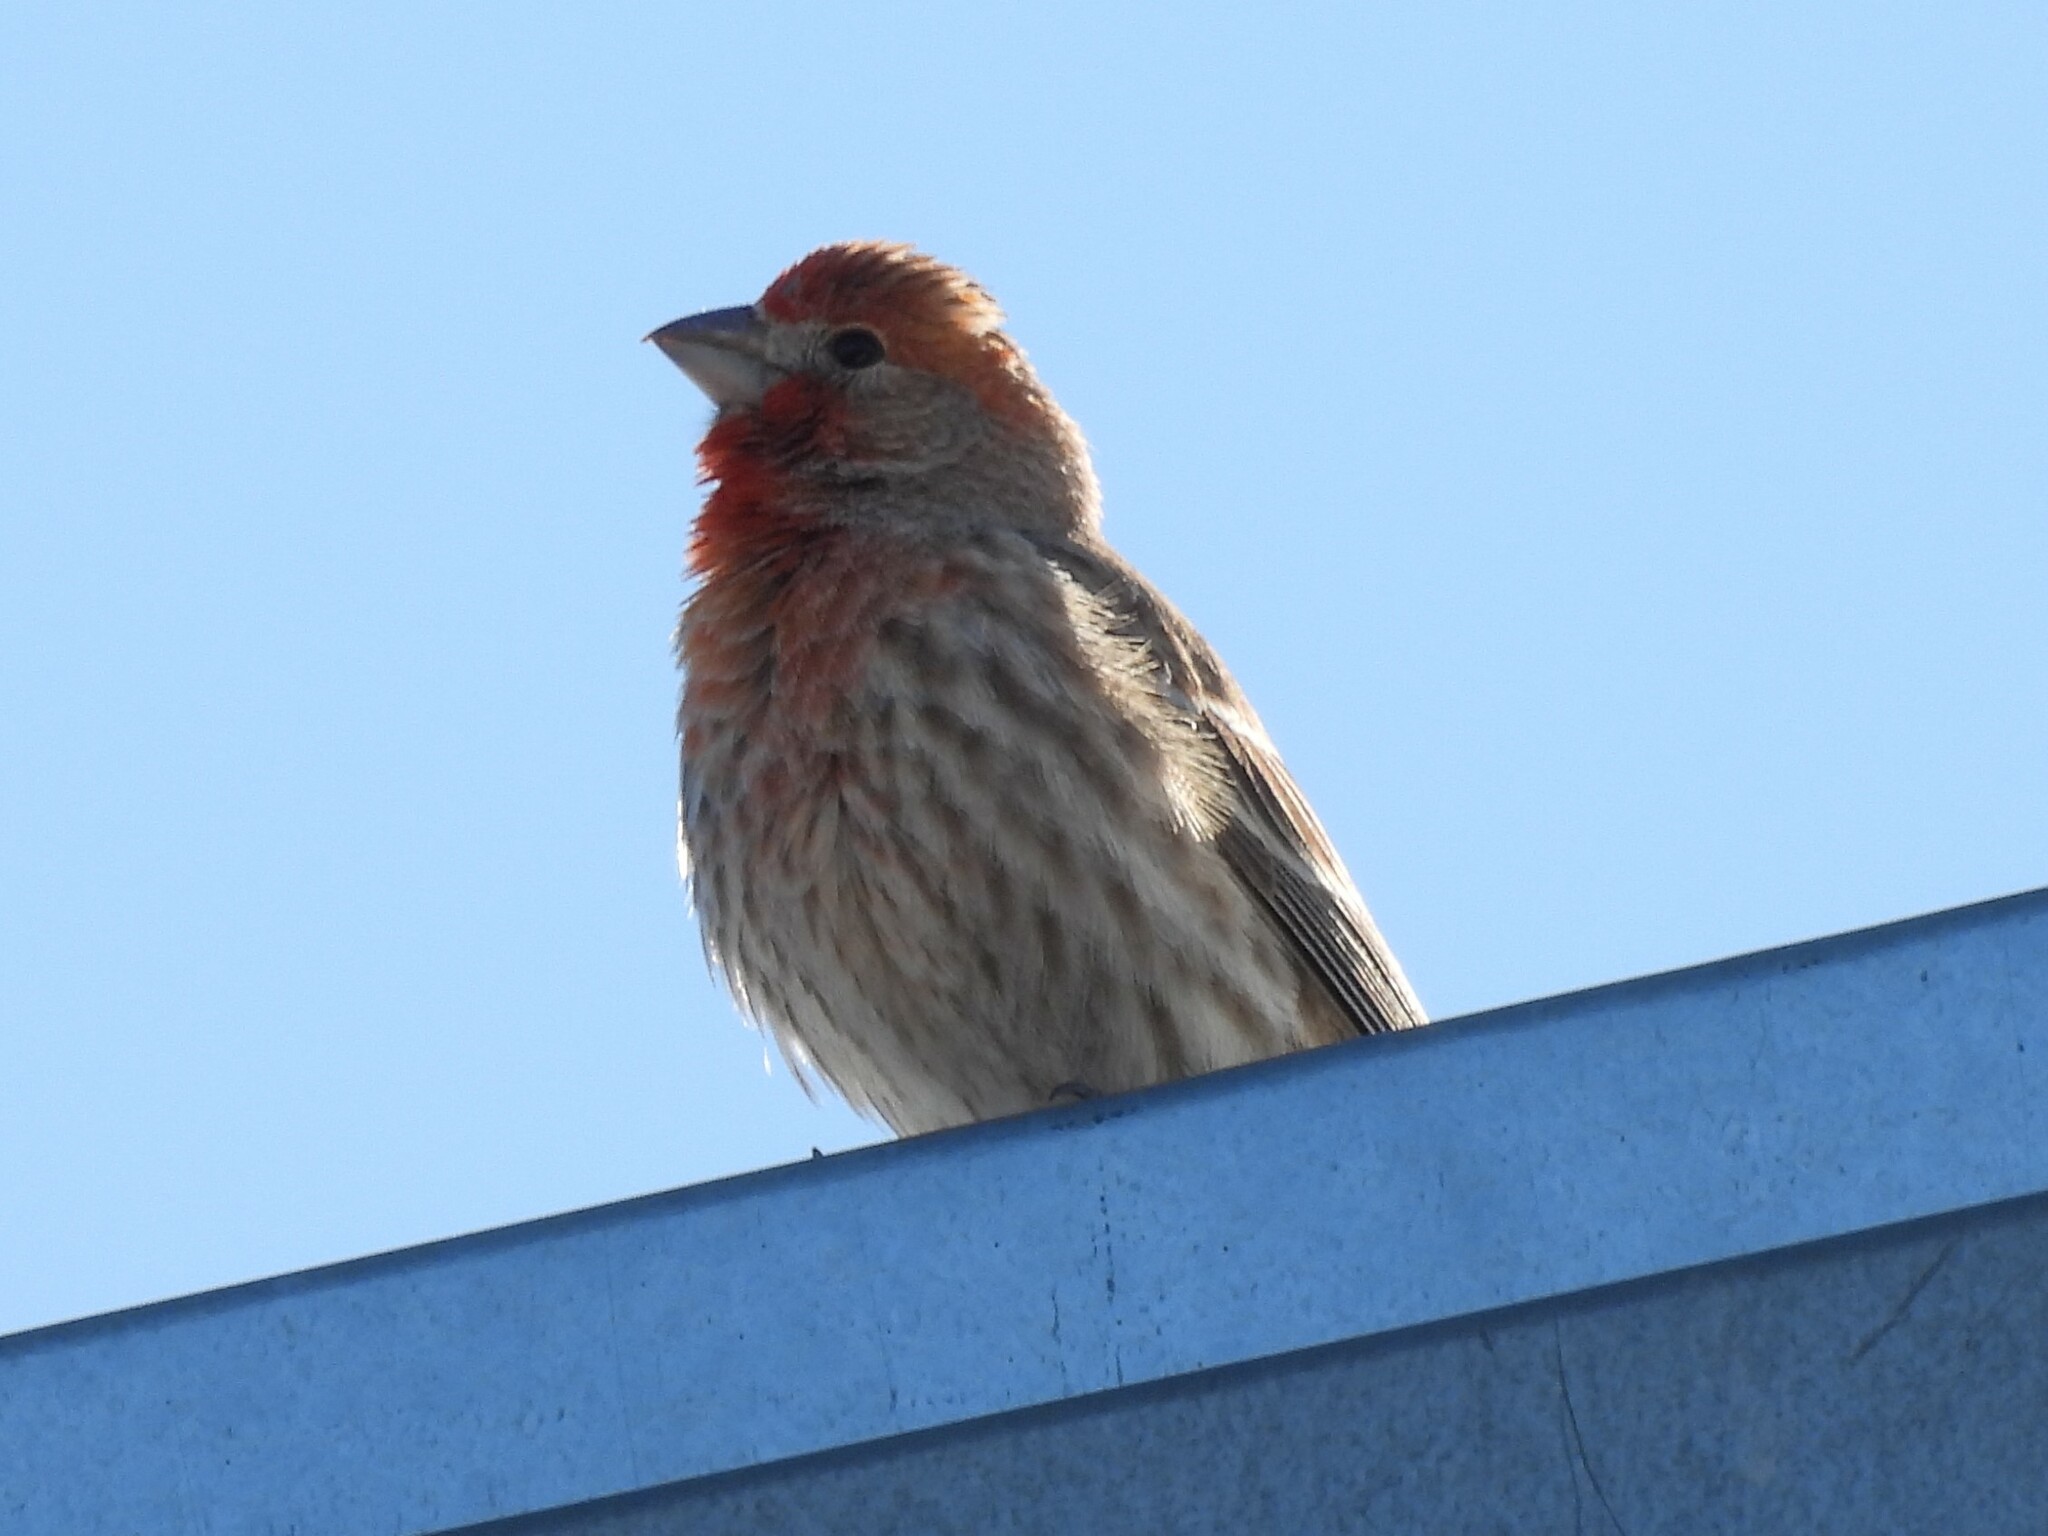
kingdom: Animalia
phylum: Chordata
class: Aves
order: Passeriformes
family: Fringillidae
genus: Haemorhous
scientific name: Haemorhous mexicanus
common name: House finch
